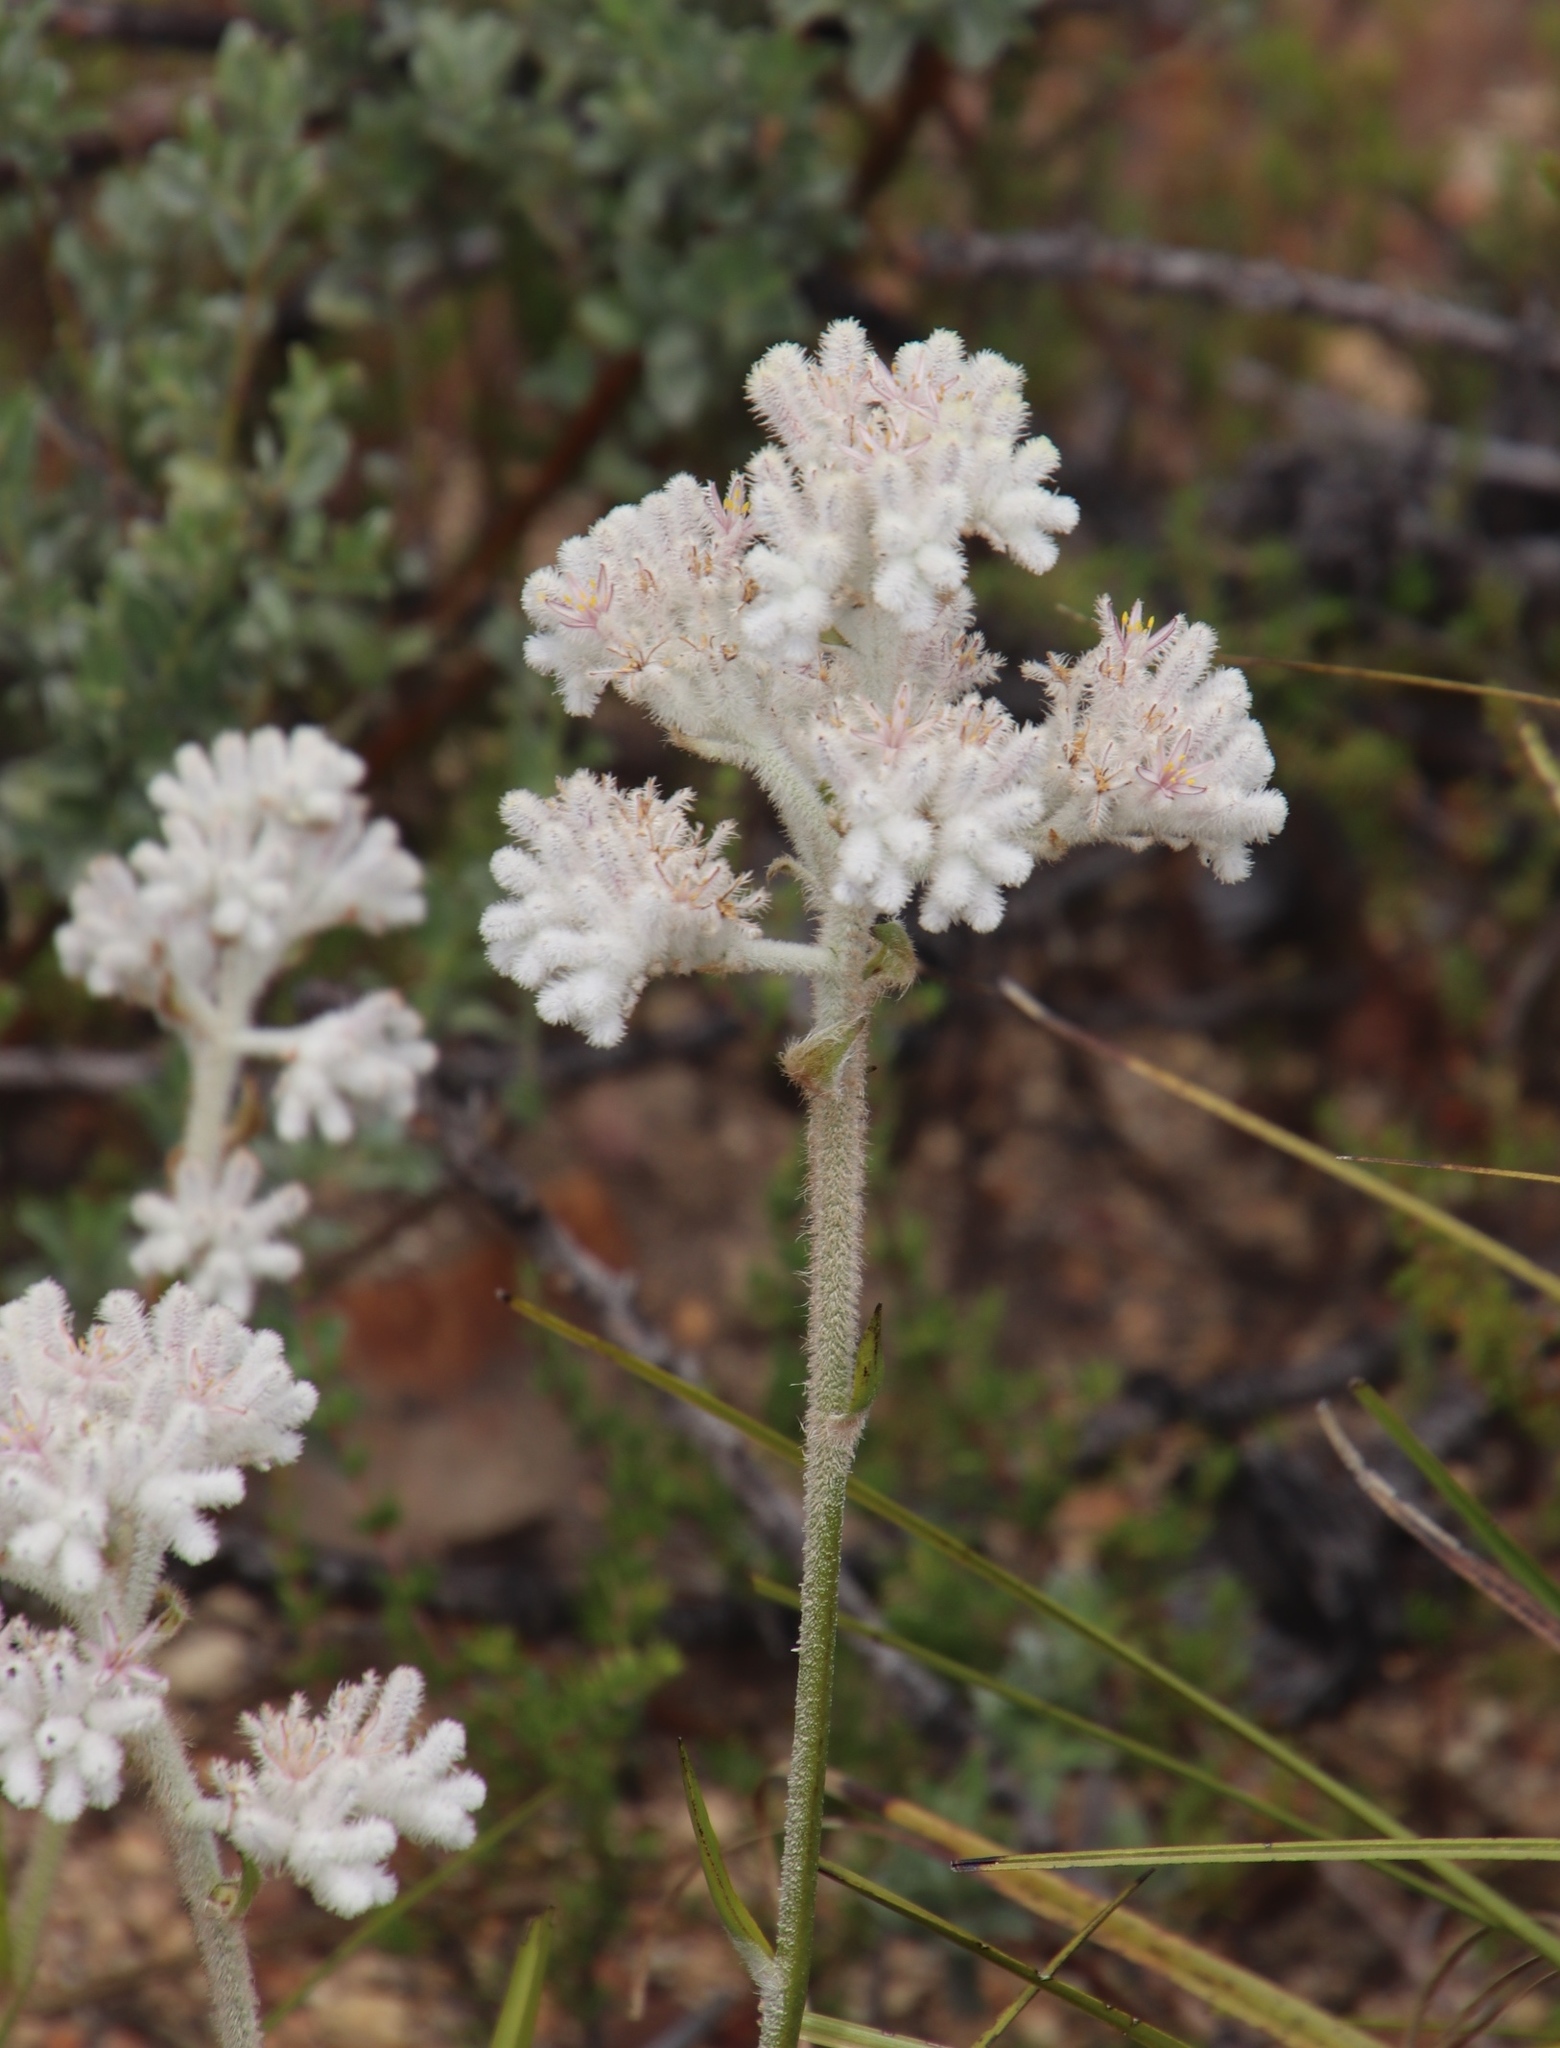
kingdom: Plantae
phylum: Tracheophyta
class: Liliopsida
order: Asparagales
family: Lanariaceae
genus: Lanaria
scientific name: Lanaria lanata
